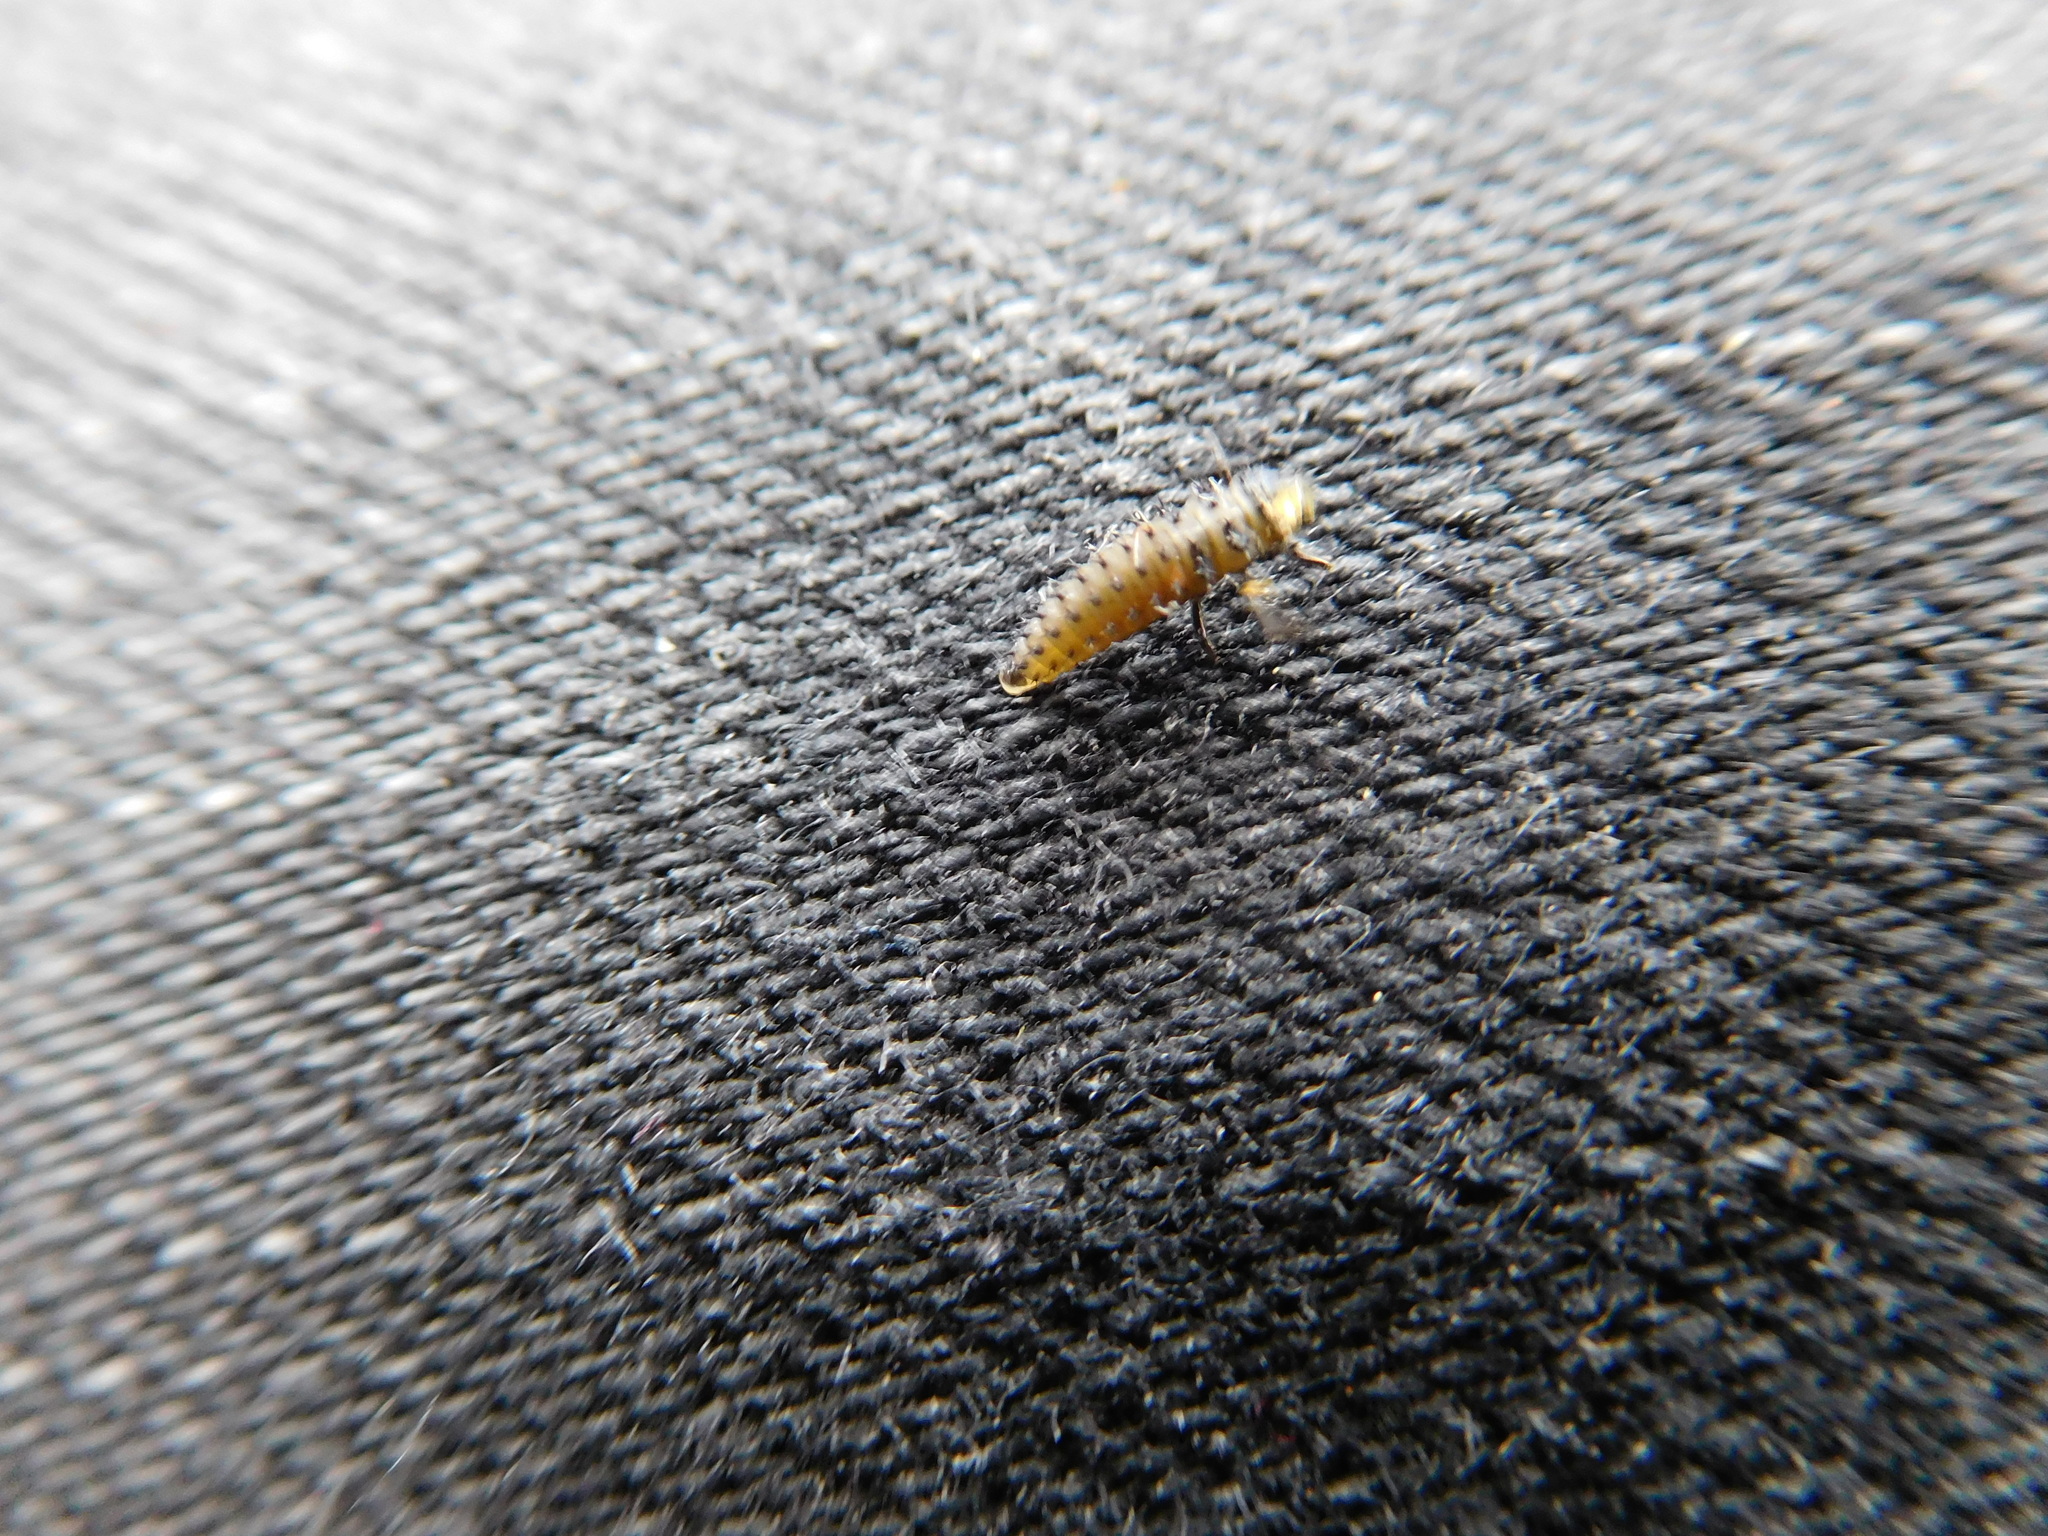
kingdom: Animalia
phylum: Arthropoda
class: Insecta
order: Coleoptera
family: Coccinellidae
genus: Harmonia
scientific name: Harmonia axyridis
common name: Harlequin ladybird
